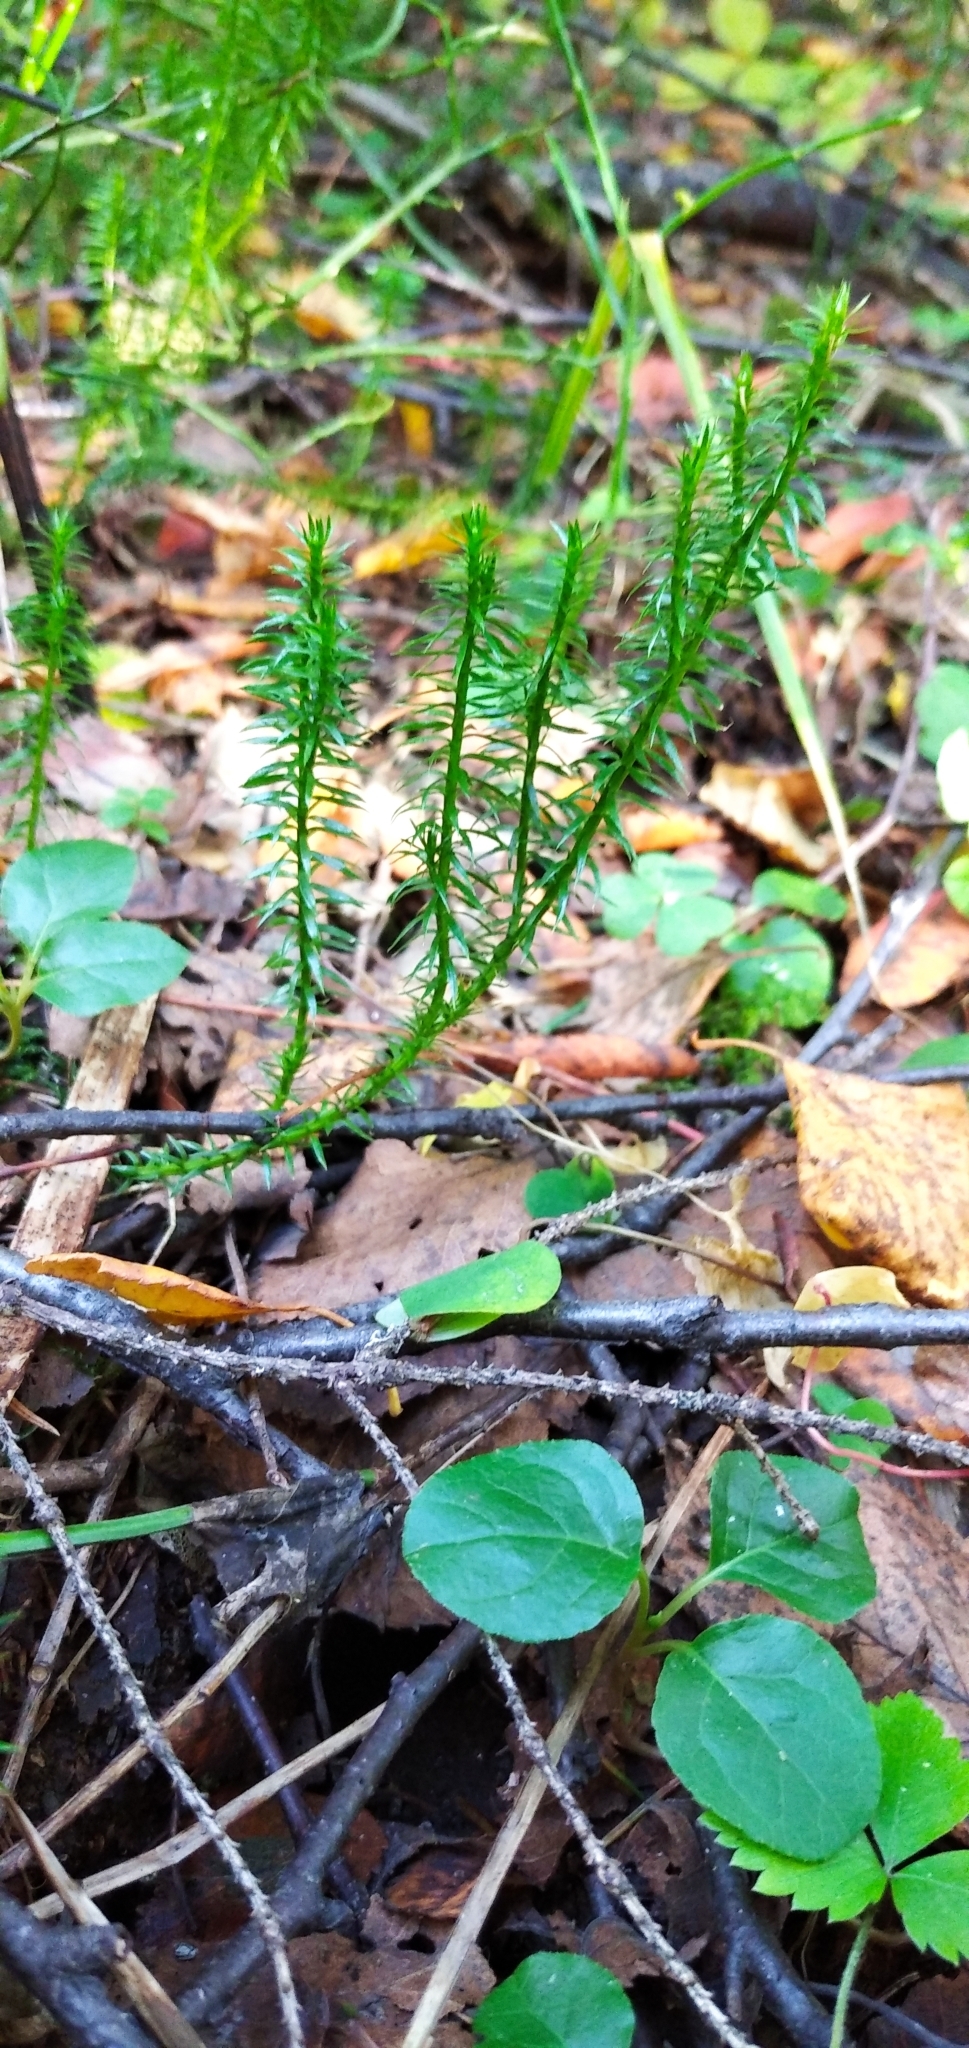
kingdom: Plantae
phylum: Tracheophyta
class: Lycopodiopsida
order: Lycopodiales
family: Lycopodiaceae
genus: Spinulum
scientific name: Spinulum annotinum
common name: Interrupted club-moss
